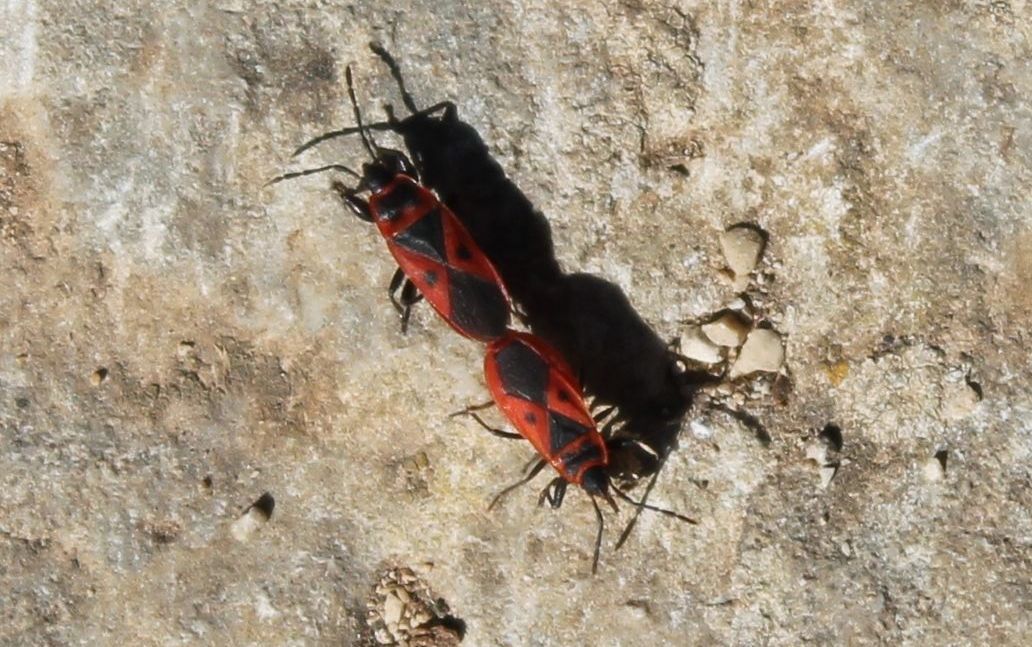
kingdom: Animalia
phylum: Arthropoda
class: Insecta
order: Hemiptera
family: Pyrrhocoridae
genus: Scantius
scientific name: Scantius aegyptius
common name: Red bug
